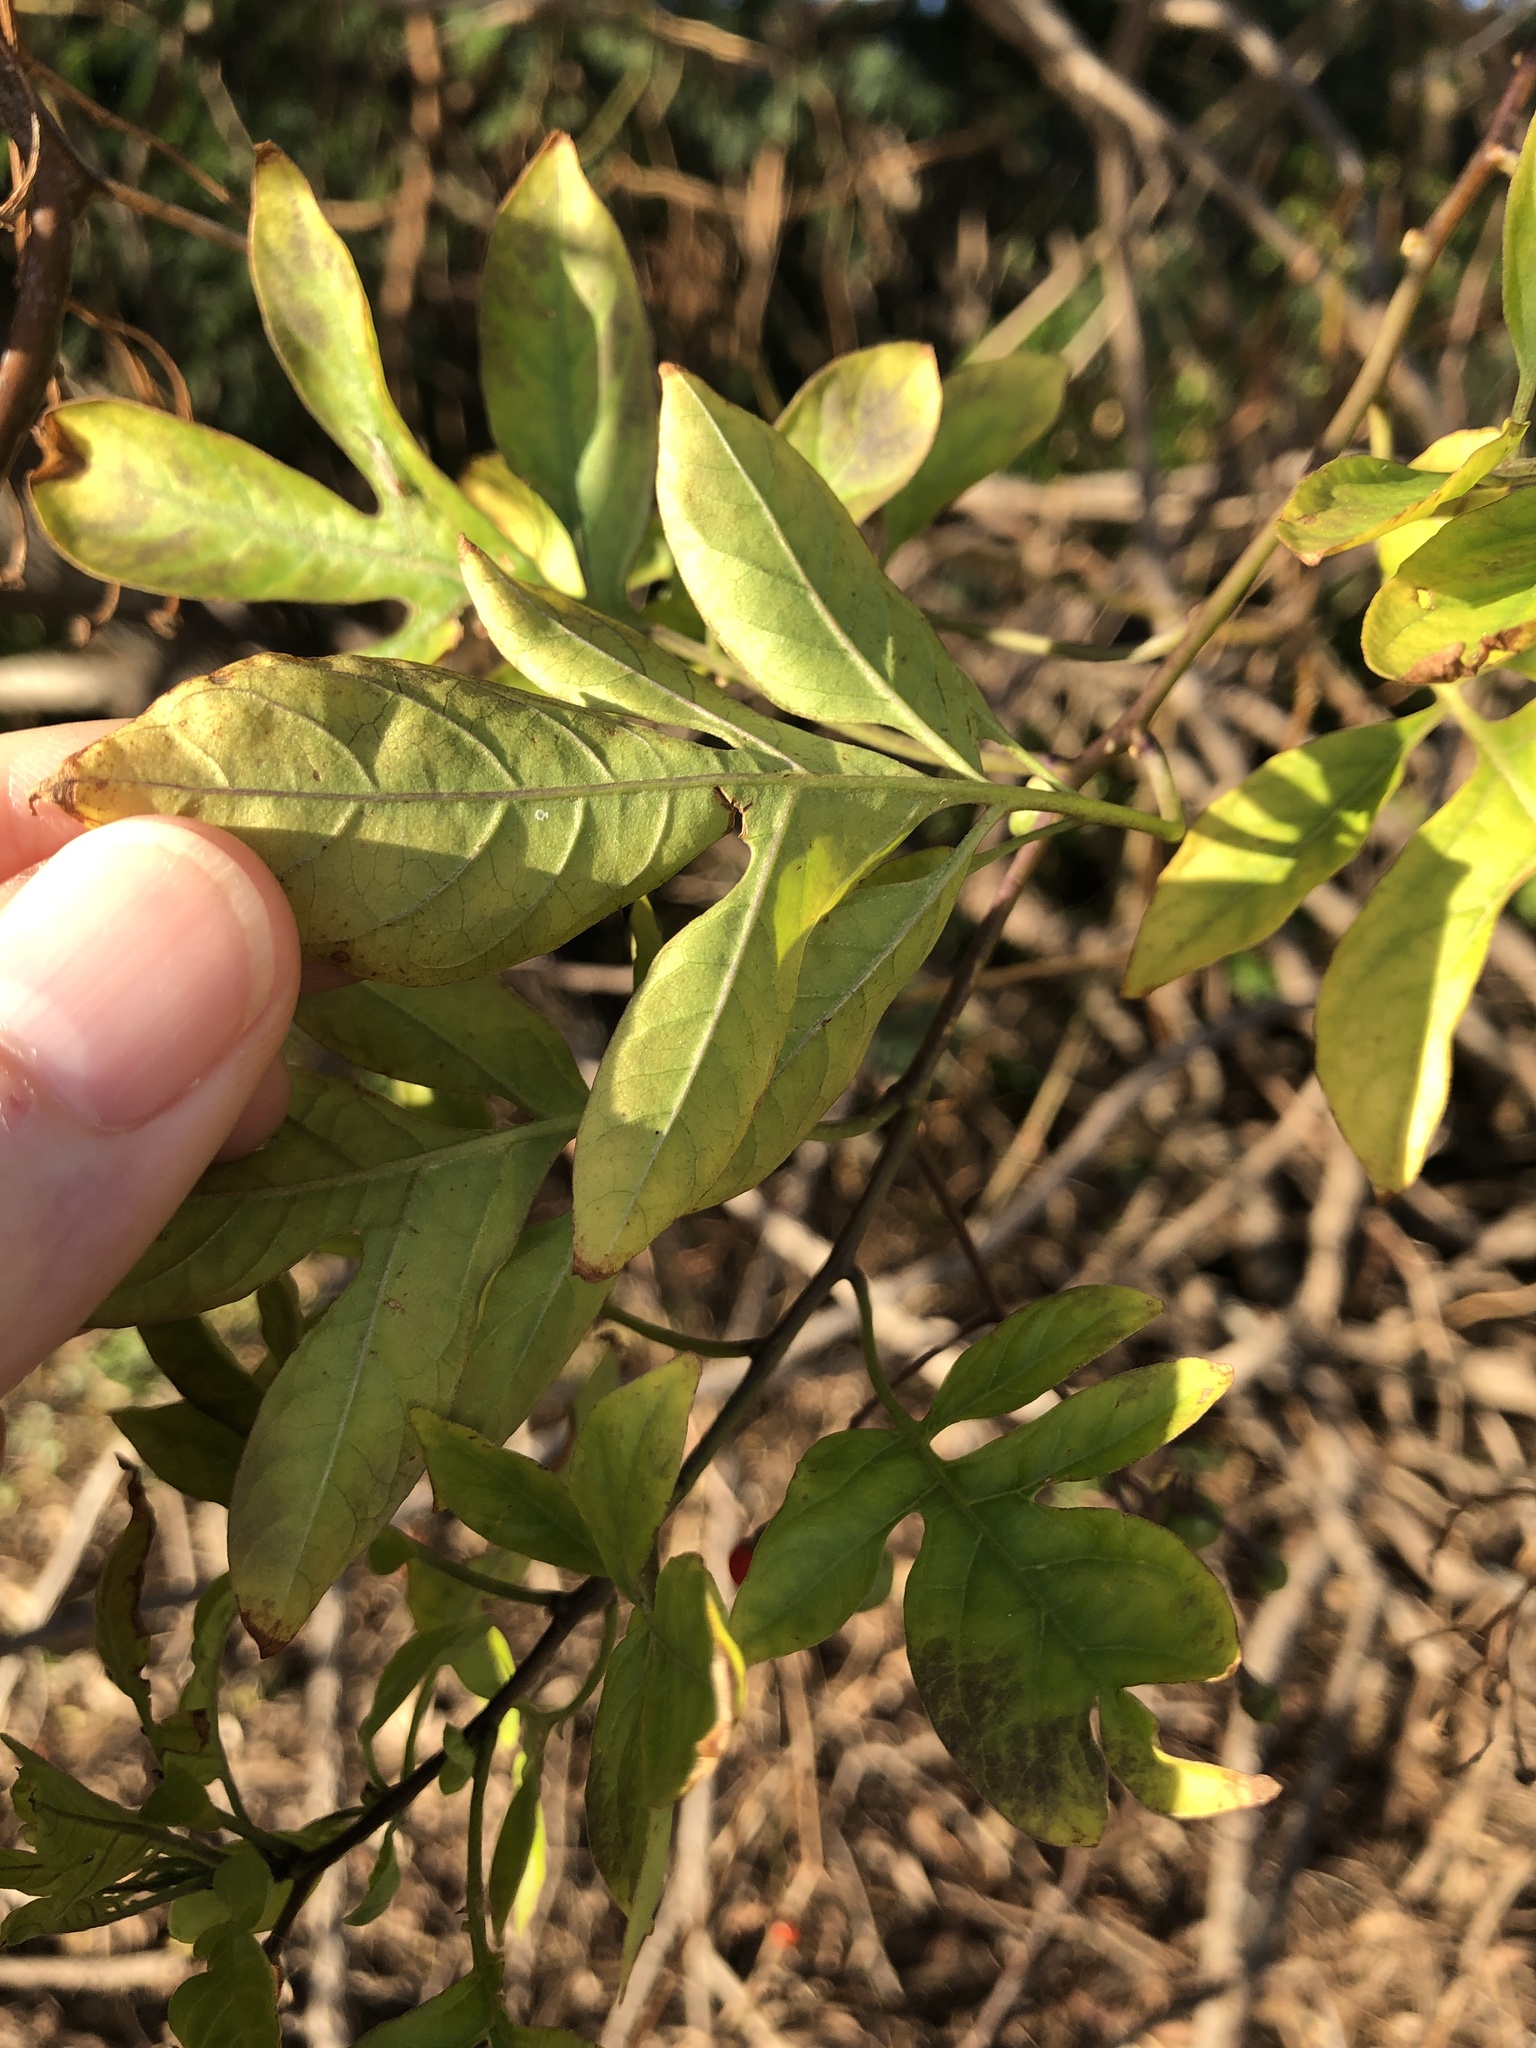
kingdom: Plantae
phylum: Tracheophyta
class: Magnoliopsida
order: Solanales
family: Solanaceae
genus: Solanum
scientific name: Solanum seaforthianum
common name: Brazilian nightshade
